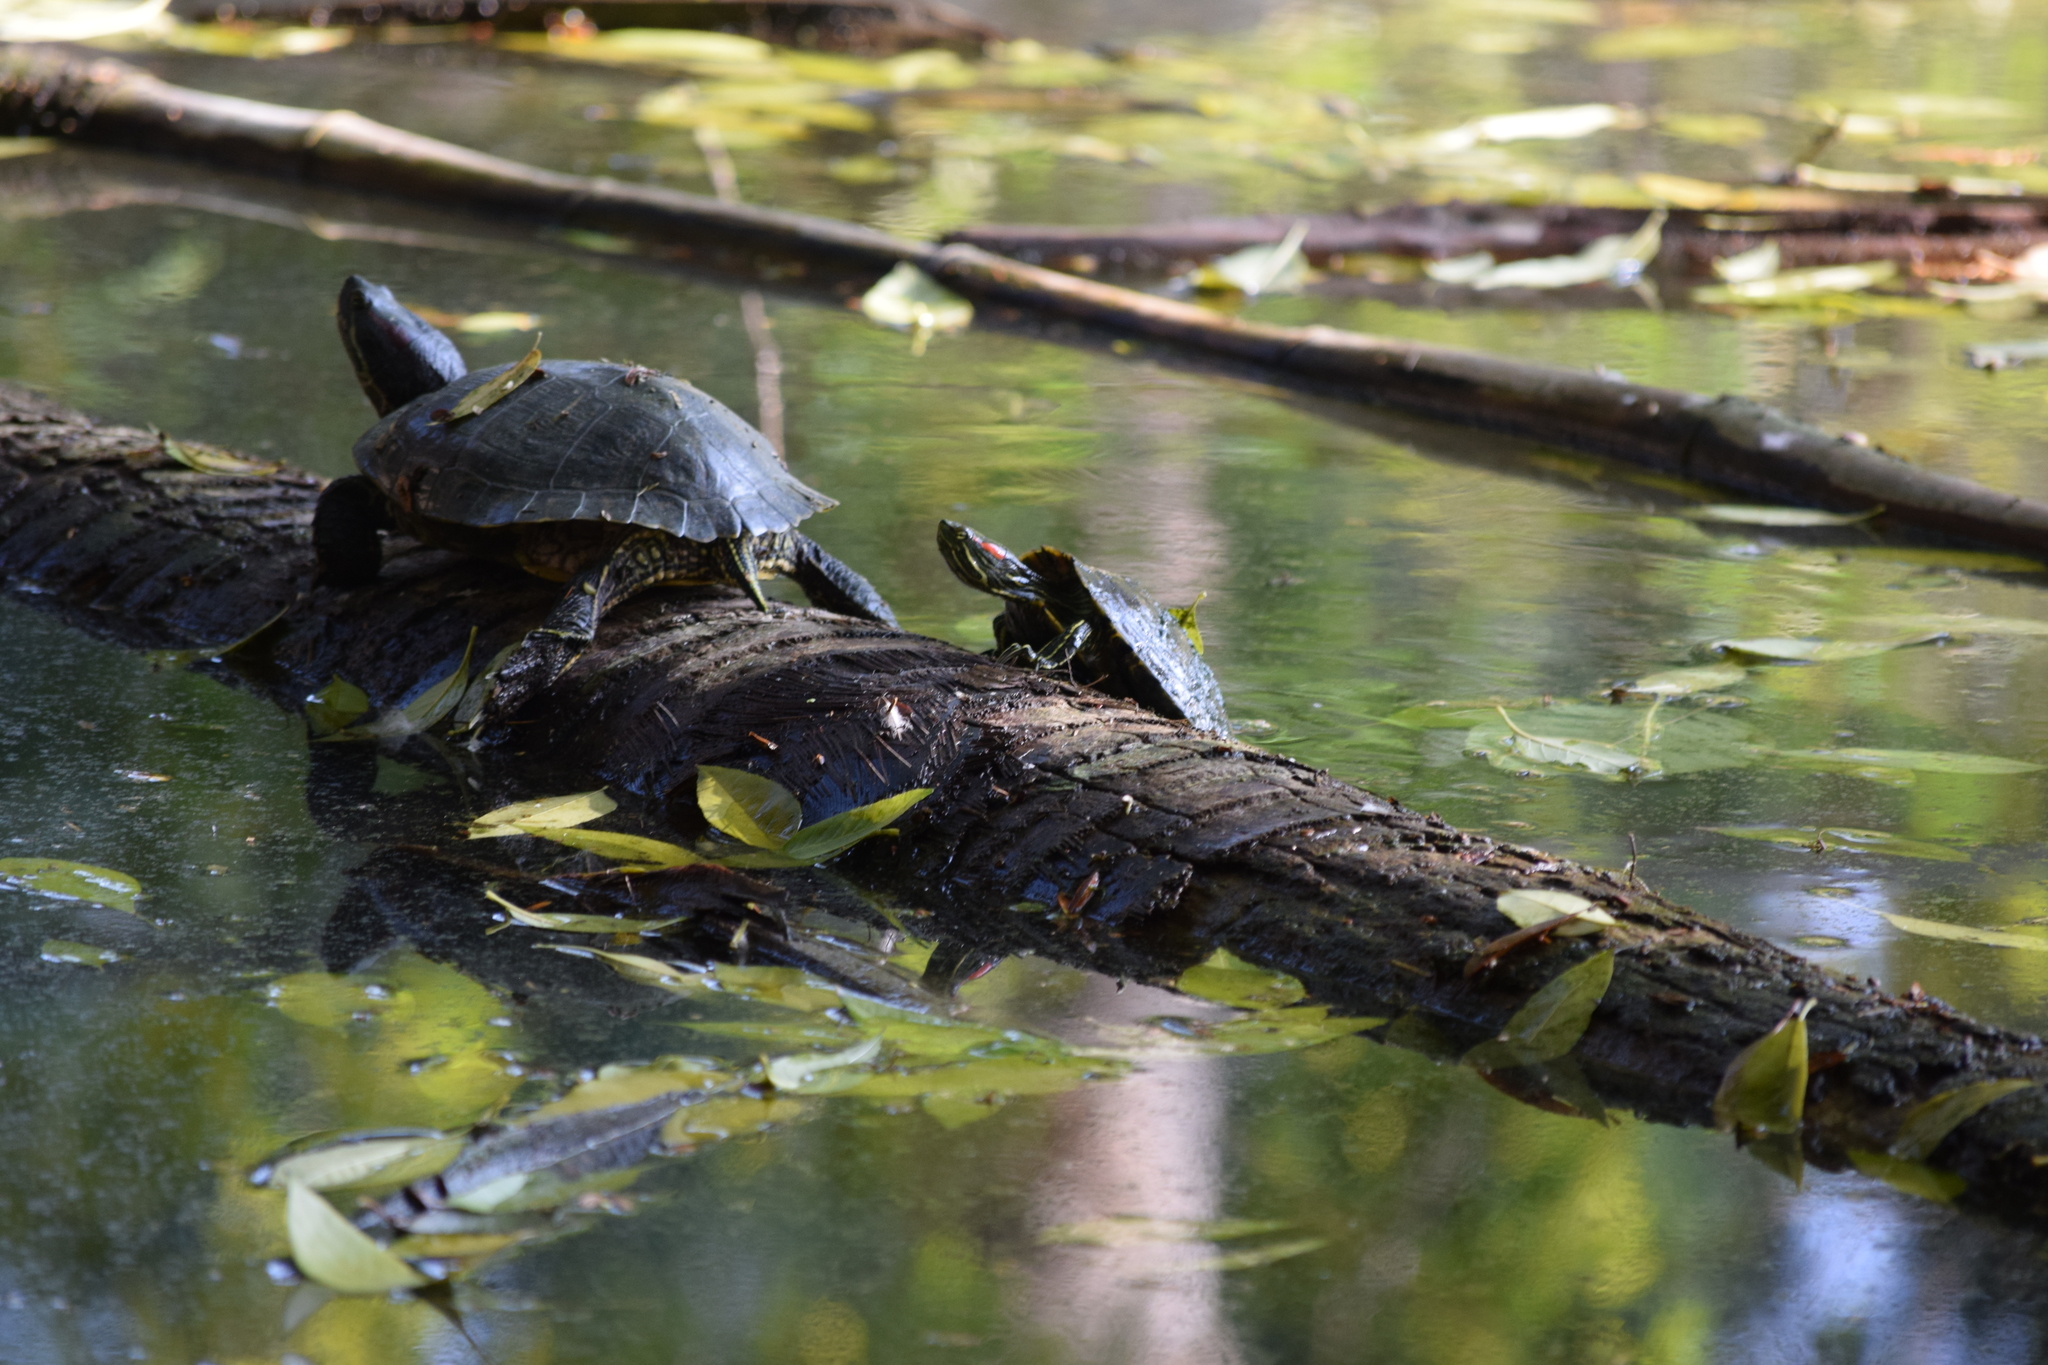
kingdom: Animalia
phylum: Chordata
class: Testudines
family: Emydidae
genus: Trachemys
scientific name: Trachemys scripta
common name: Slider
